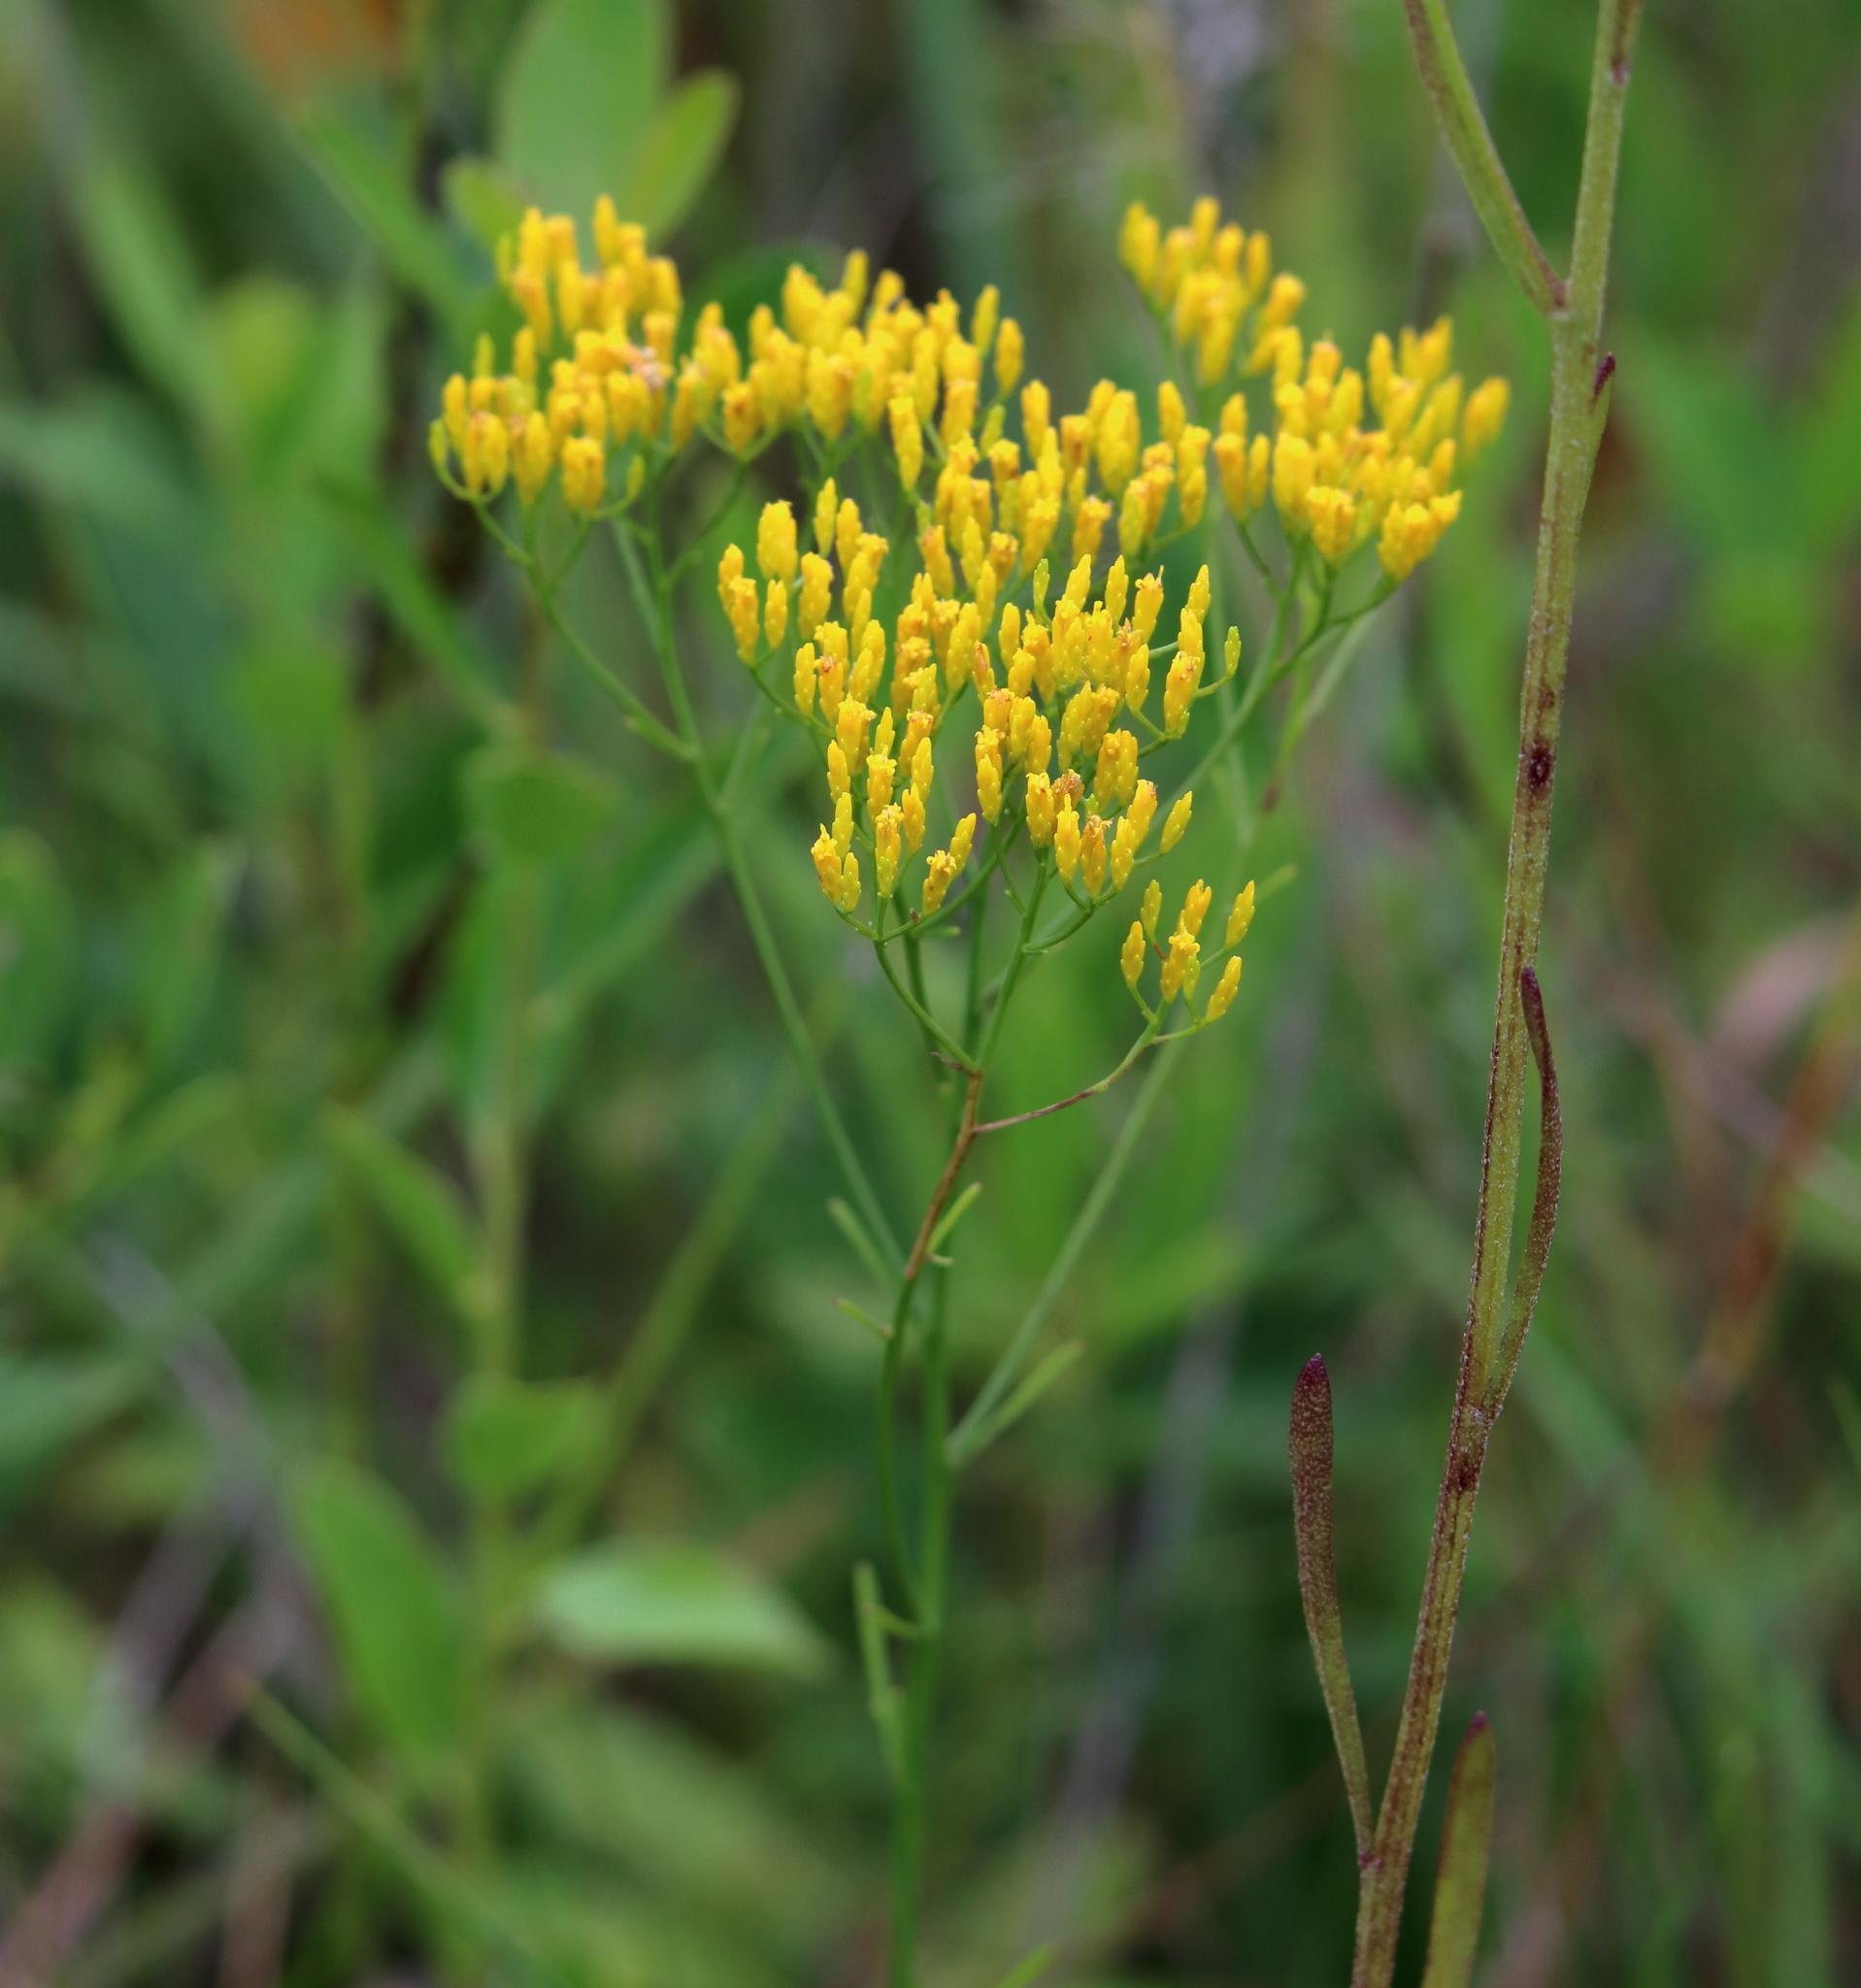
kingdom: Plantae
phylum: Tracheophyta
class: Magnoliopsida
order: Asterales
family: Asteraceae
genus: Bigelowia
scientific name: Bigelowia nudata
